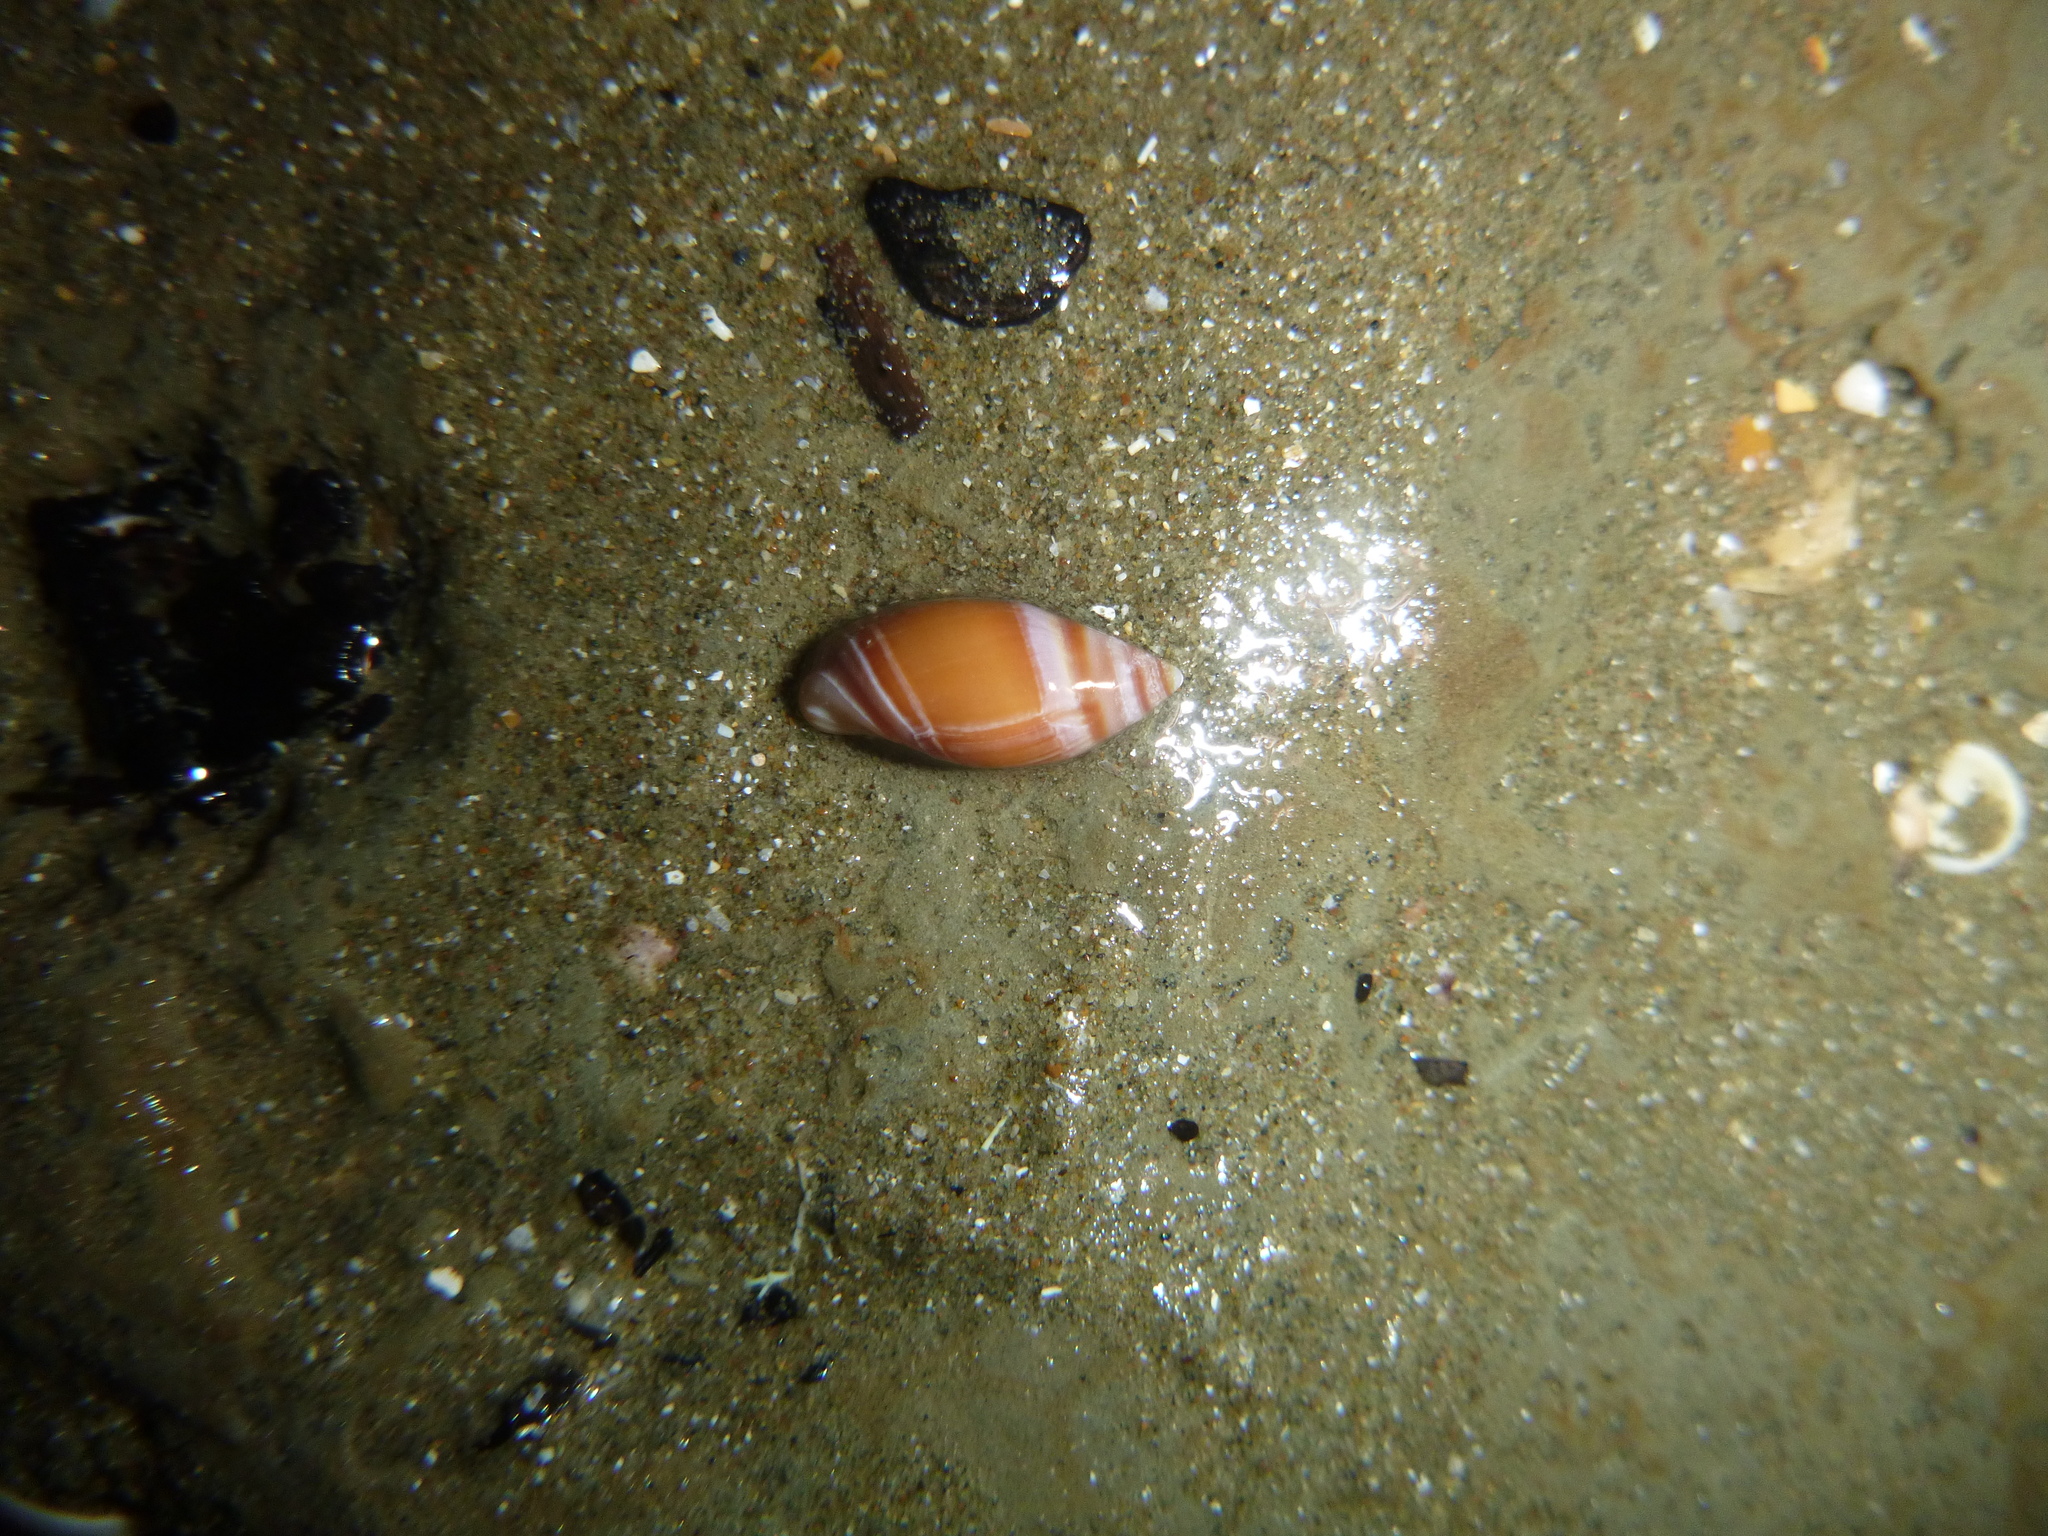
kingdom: Animalia
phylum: Mollusca
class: Gastropoda
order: Neogastropoda
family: Ancillariidae
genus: Amalda
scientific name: Amalda australis
